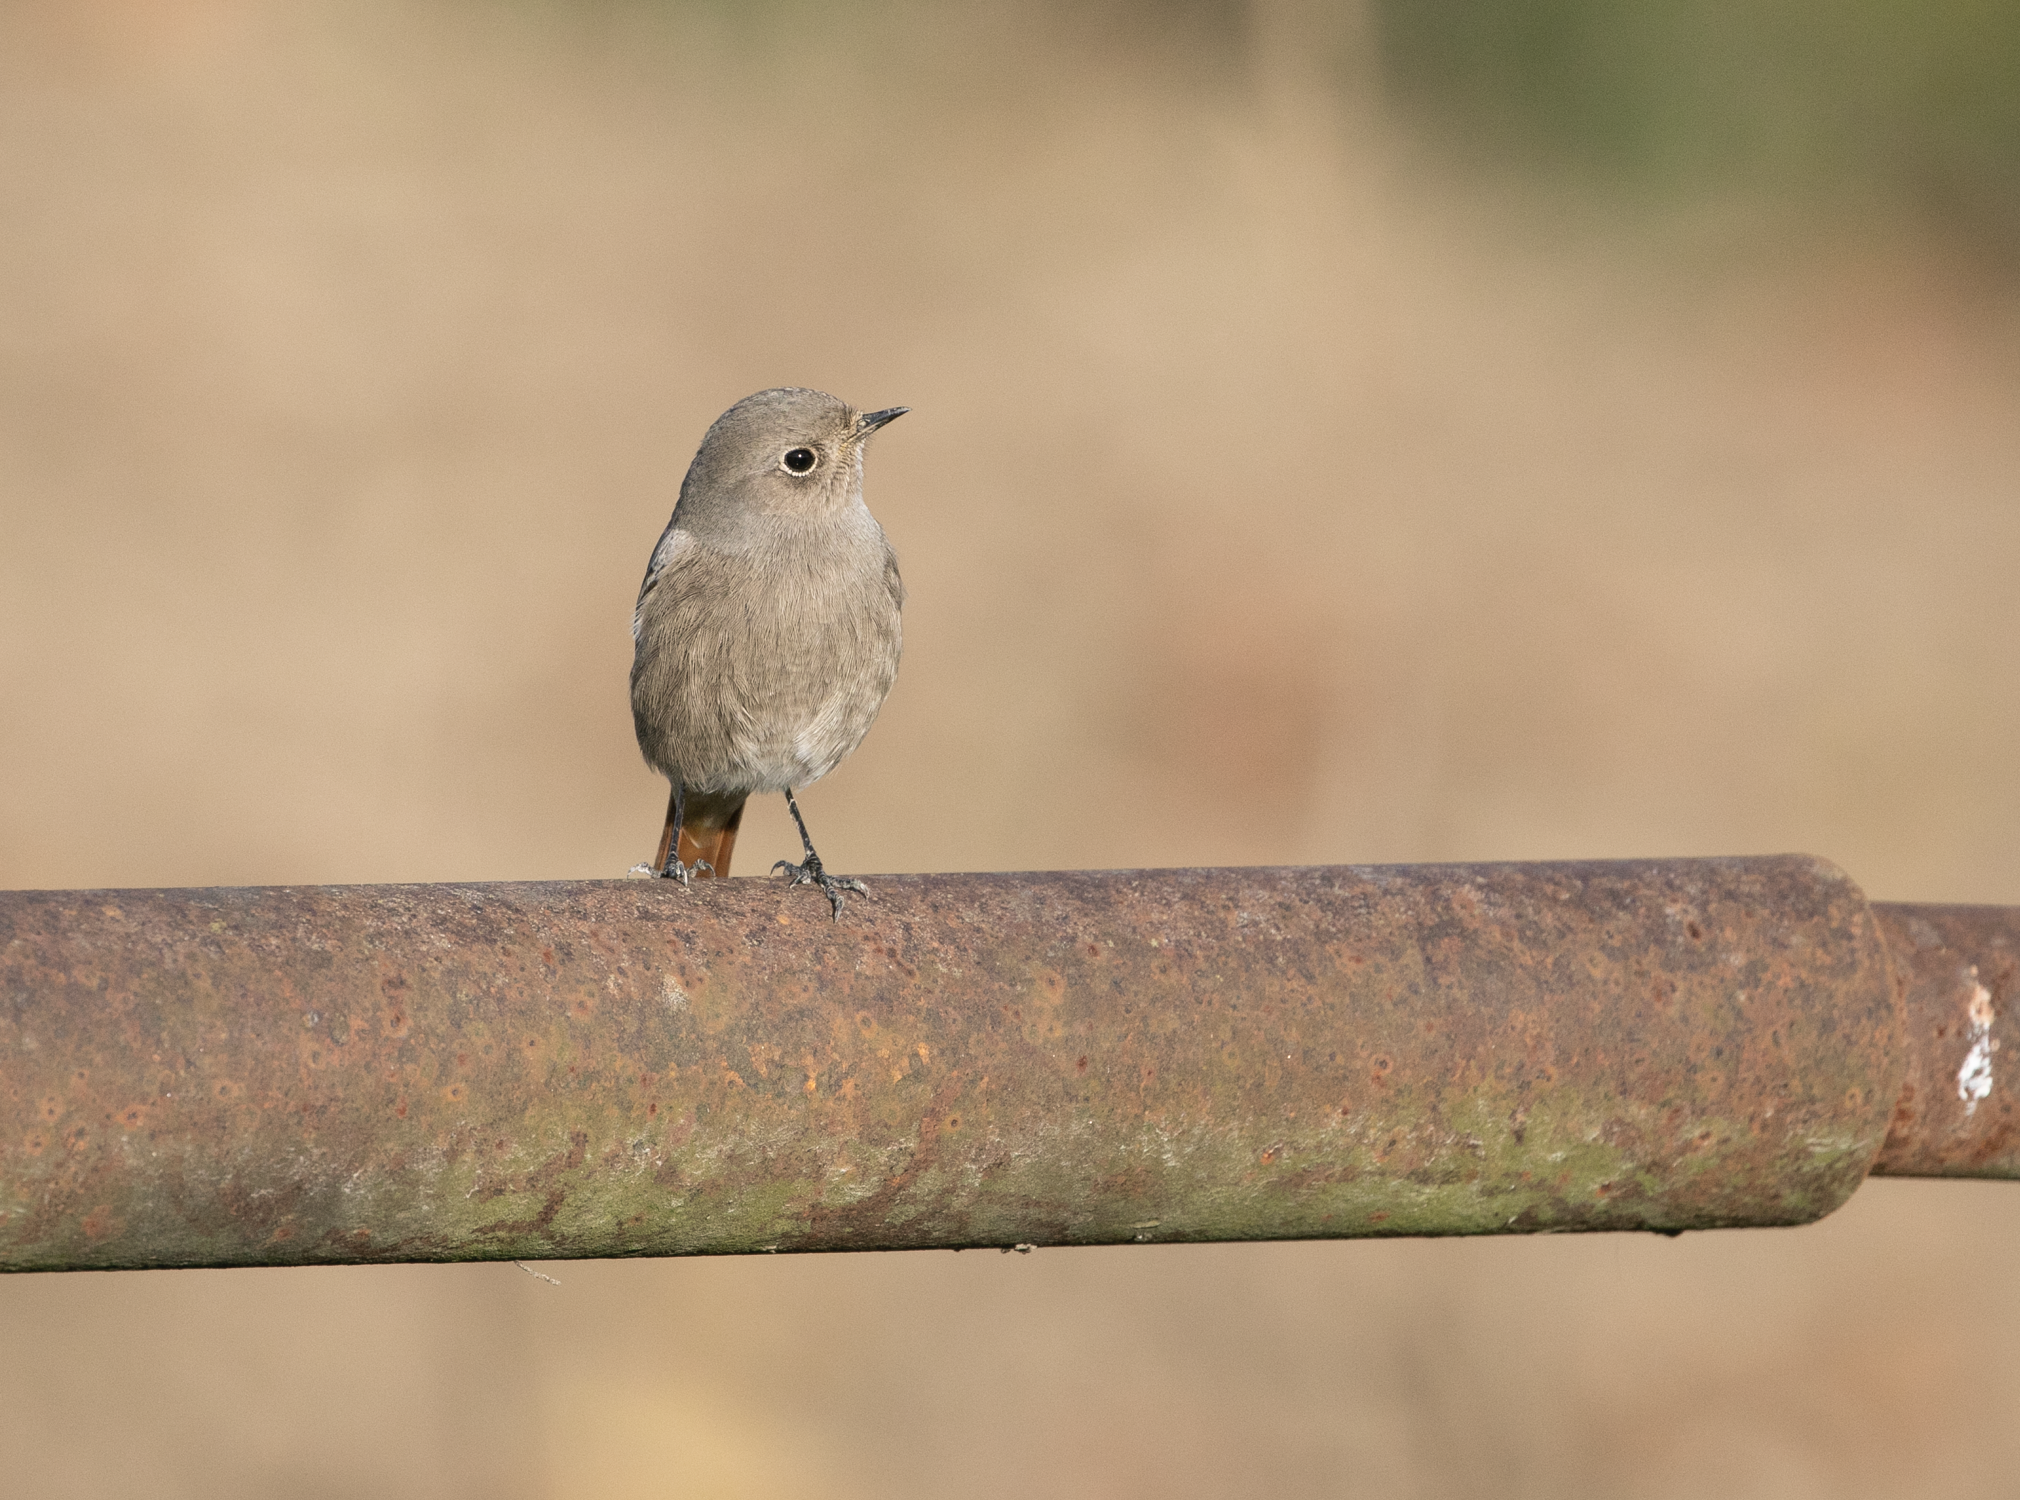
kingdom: Animalia
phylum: Chordata
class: Aves
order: Passeriformes
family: Muscicapidae
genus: Phoenicurus
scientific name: Phoenicurus ochruros
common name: Black redstart
